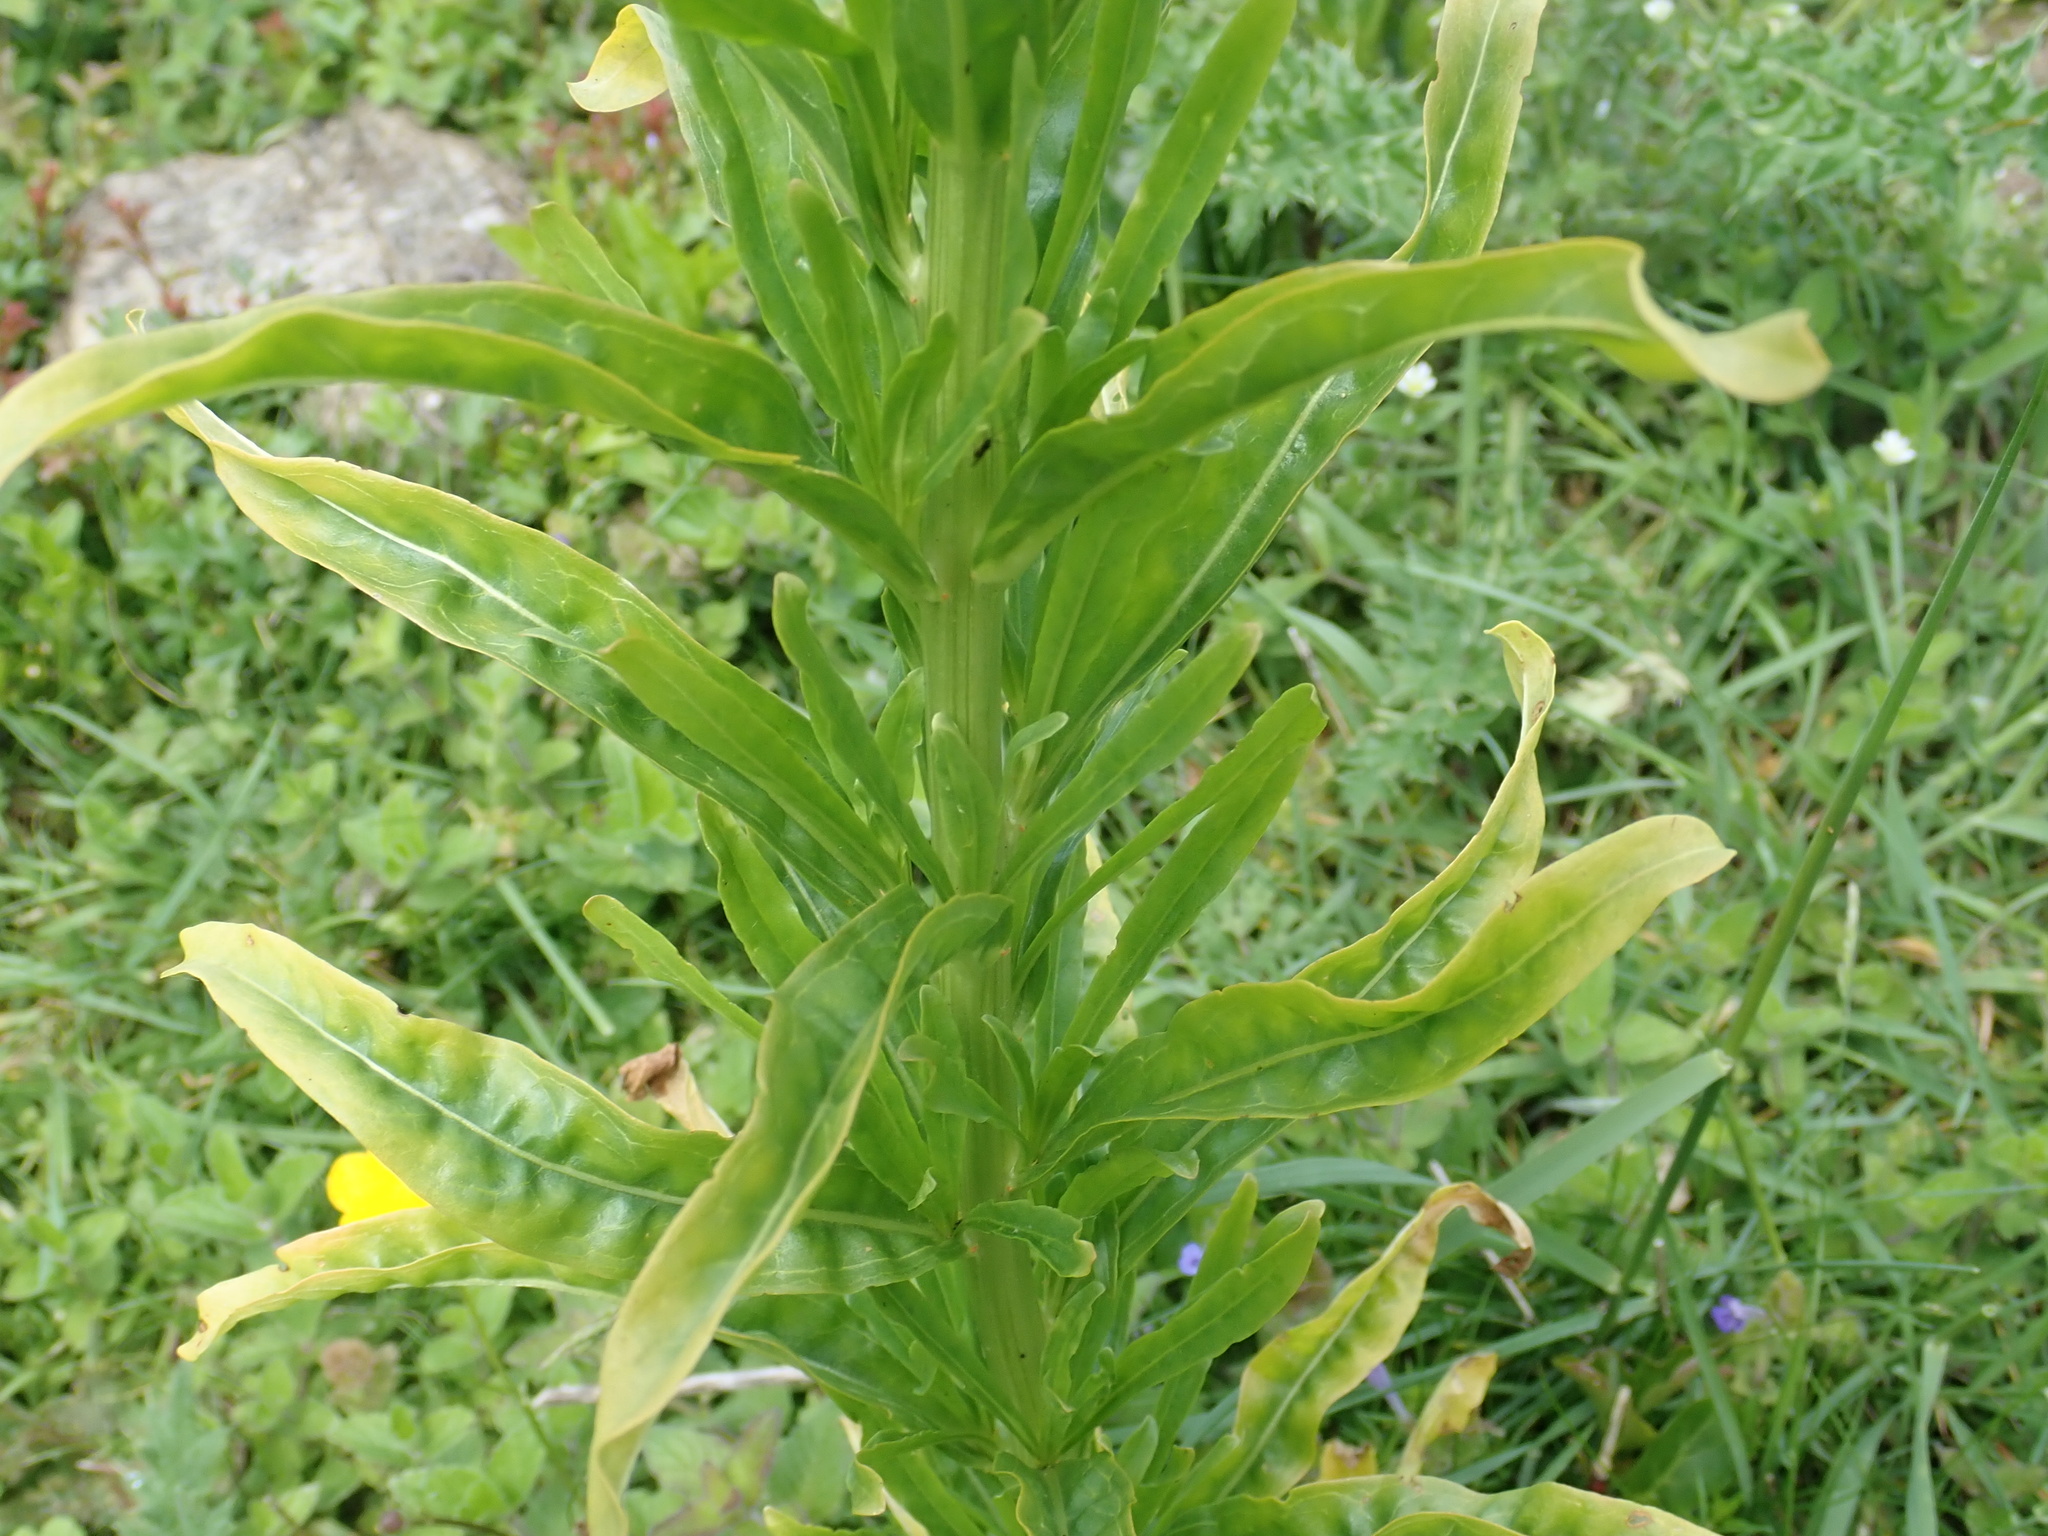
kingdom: Plantae
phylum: Tracheophyta
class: Magnoliopsida
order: Brassicales
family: Resedaceae
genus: Reseda
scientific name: Reseda luteola
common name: Weld
